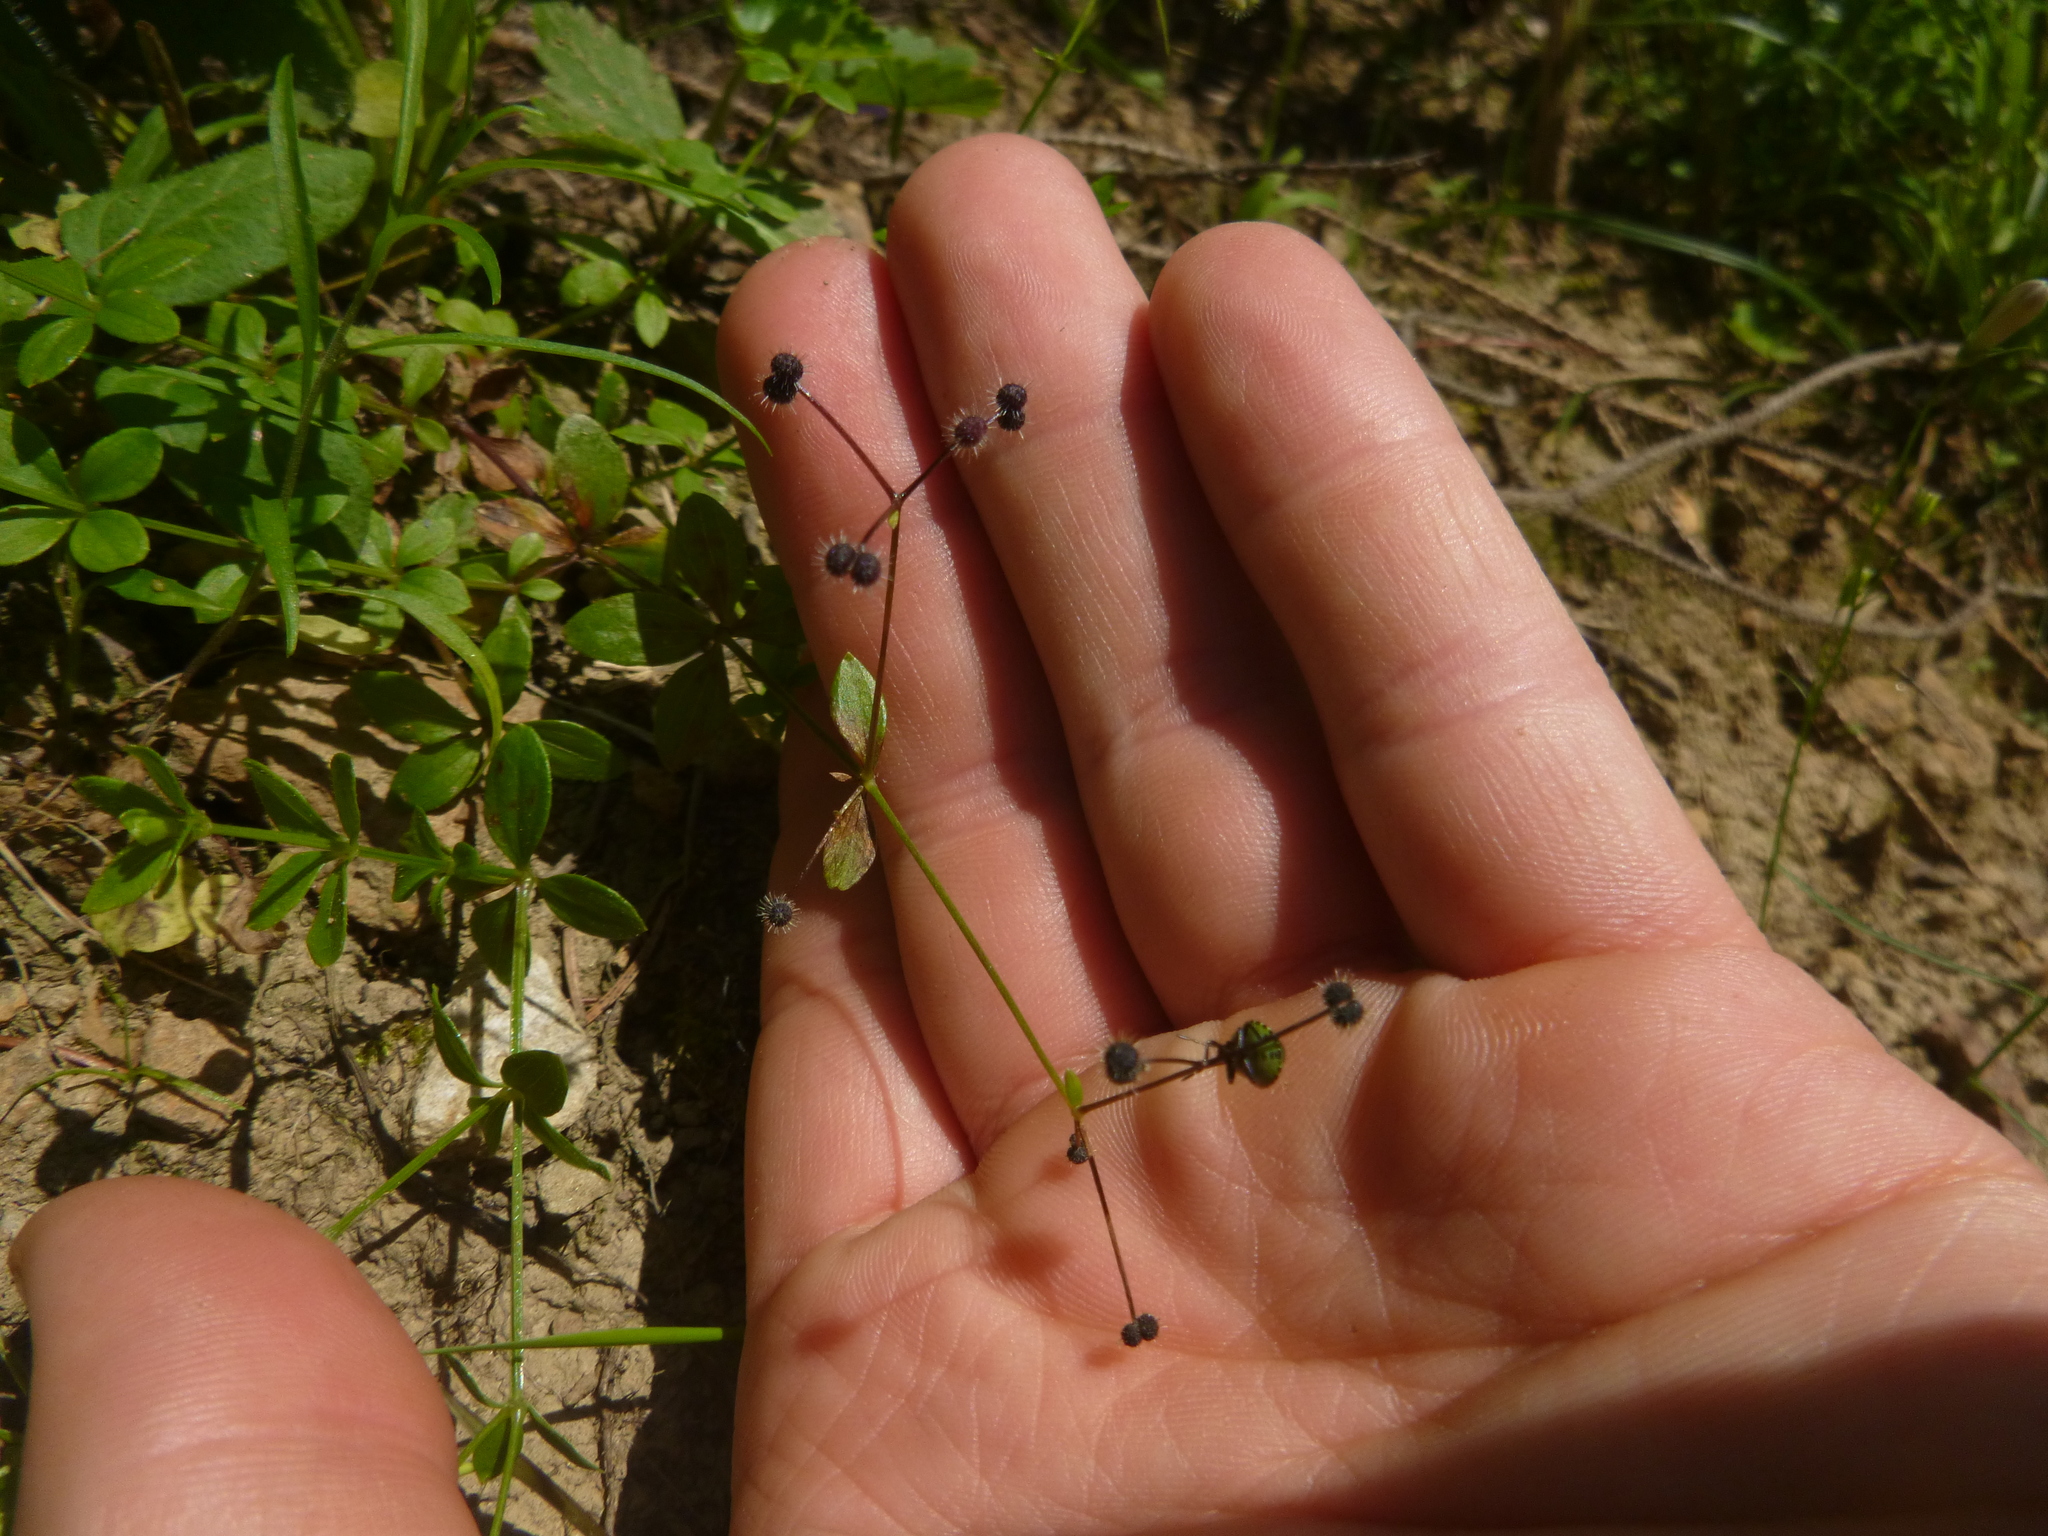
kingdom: Plantae
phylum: Tracheophyta
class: Magnoliopsida
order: Gentianales
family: Rubiaceae
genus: Galium
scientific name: Galium rotundifolium
